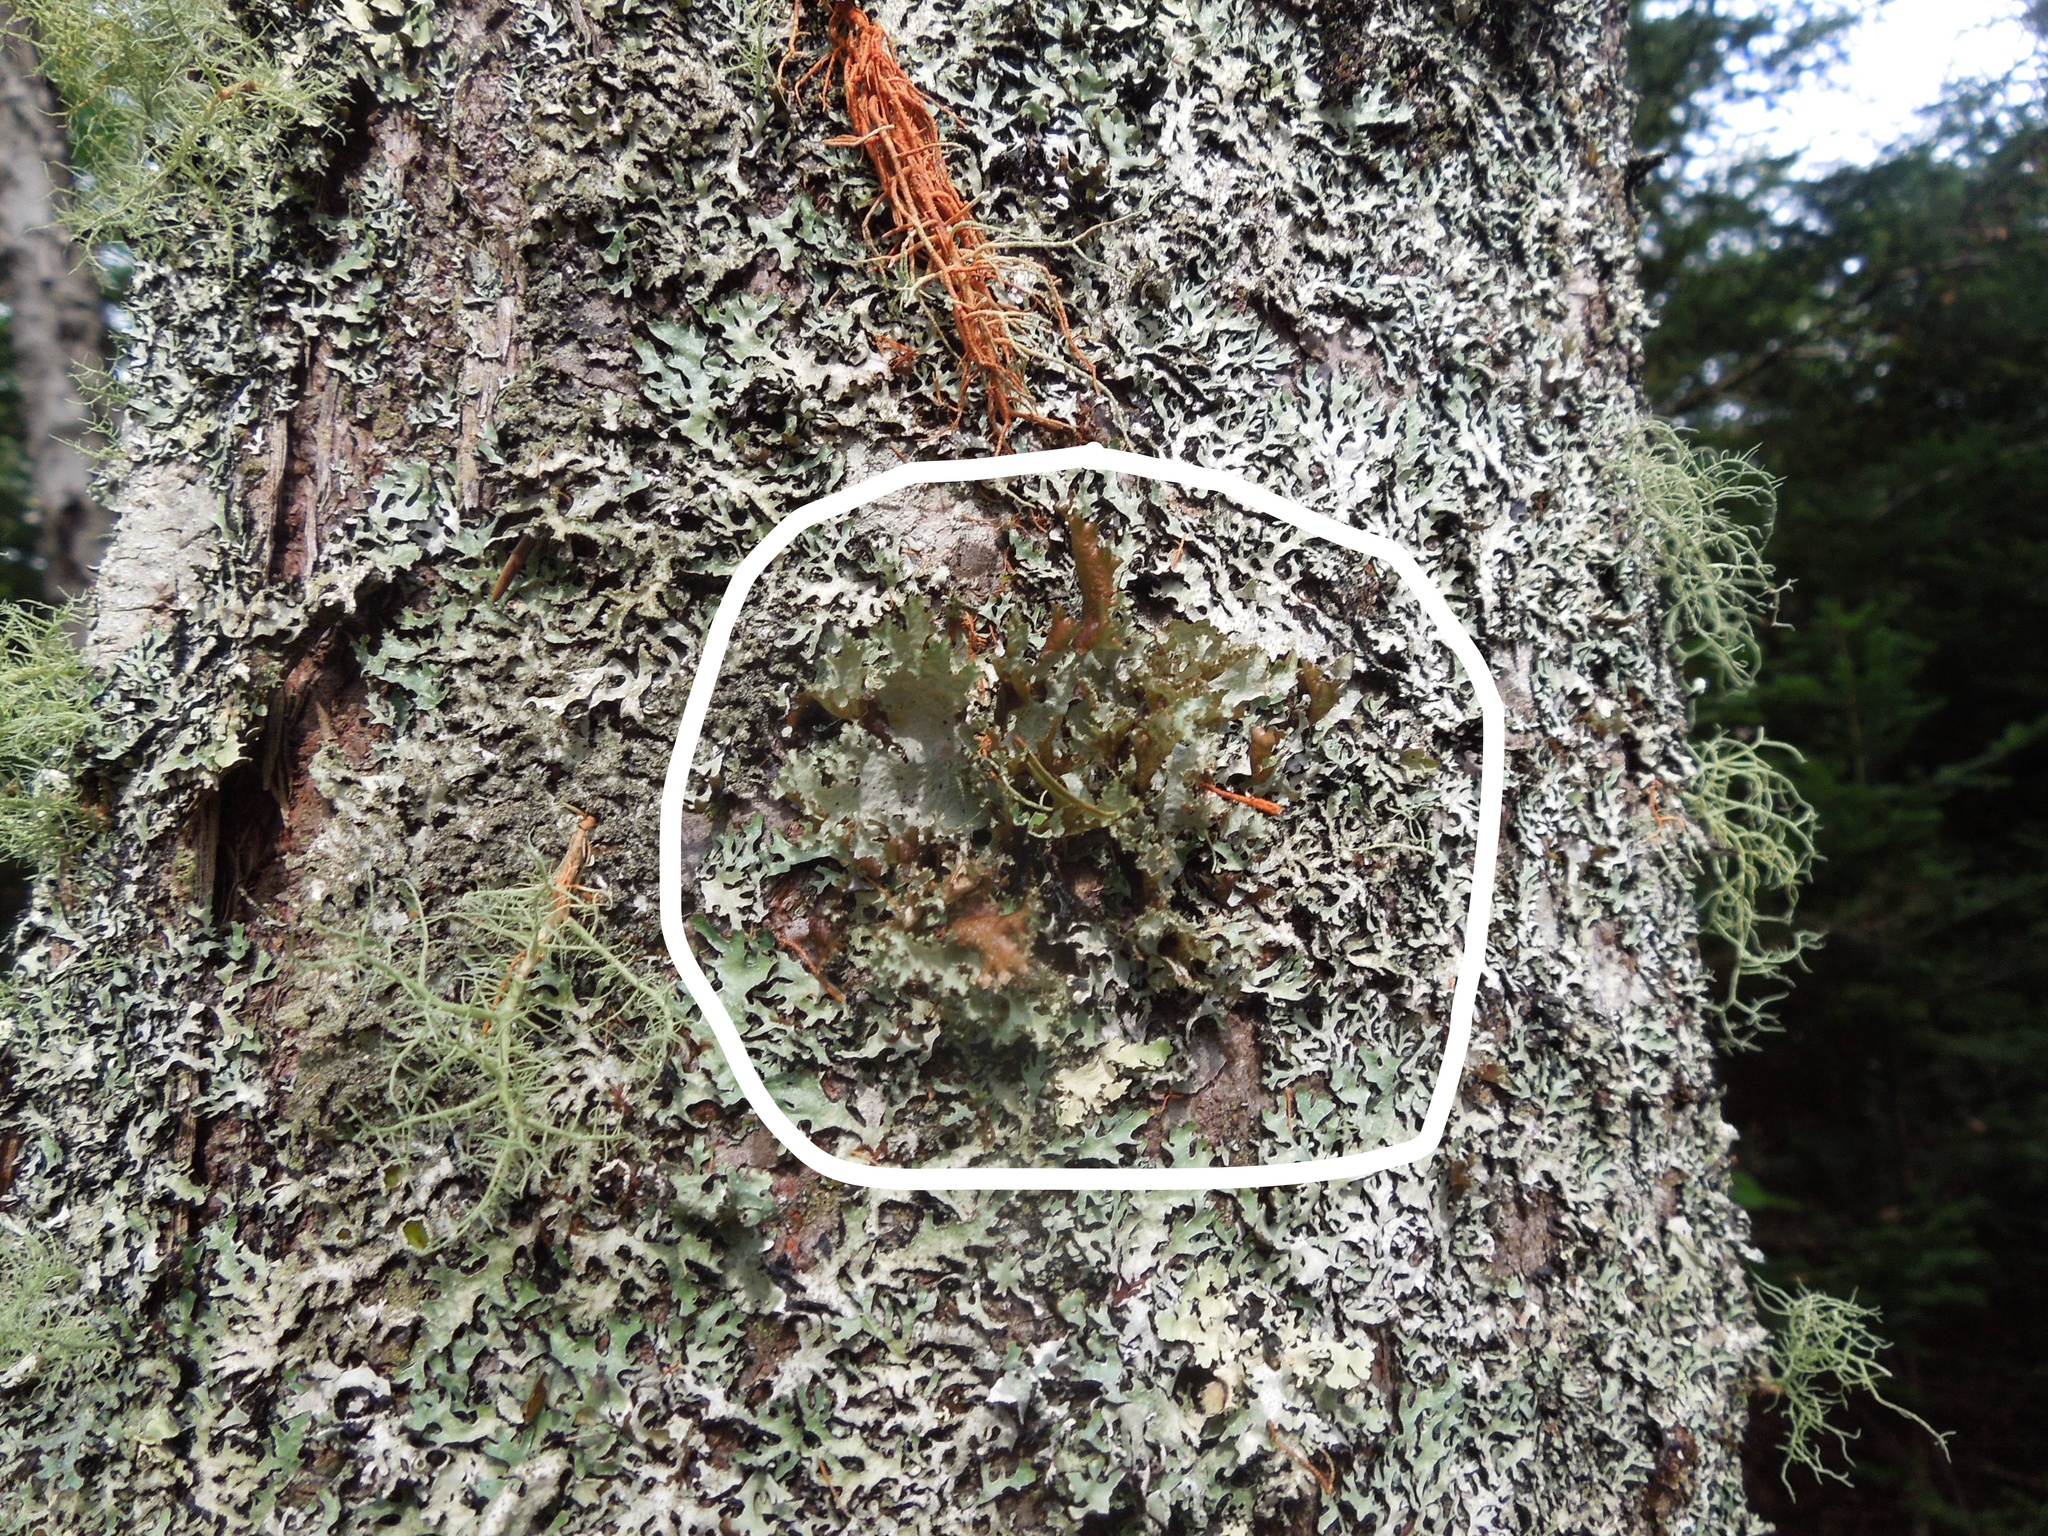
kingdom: Fungi
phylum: Ascomycota
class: Lecanoromycetes
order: Lecanorales
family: Parmeliaceae
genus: Platismatia
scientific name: Platismatia glauca
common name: Varied rag lichen
